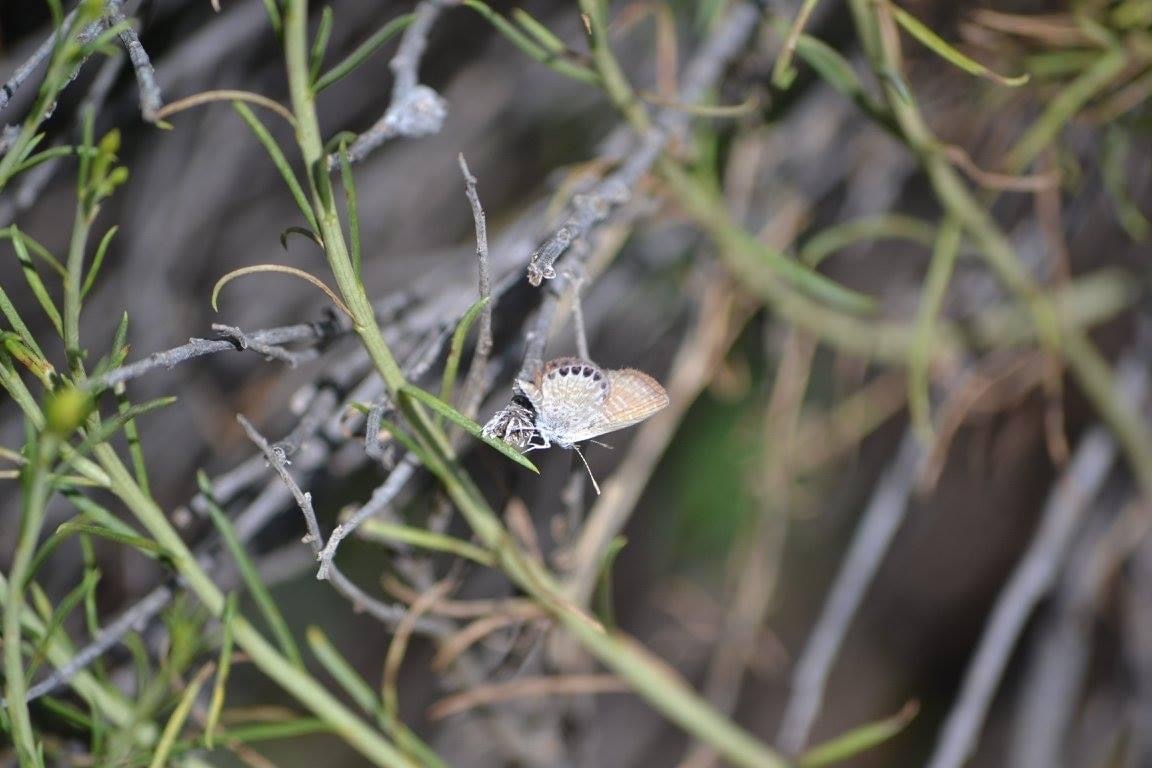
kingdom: Animalia
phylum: Arthropoda
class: Insecta
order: Lepidoptera
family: Lycaenidae
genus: Brephidium
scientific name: Brephidium exilis
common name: Pygmy blue
